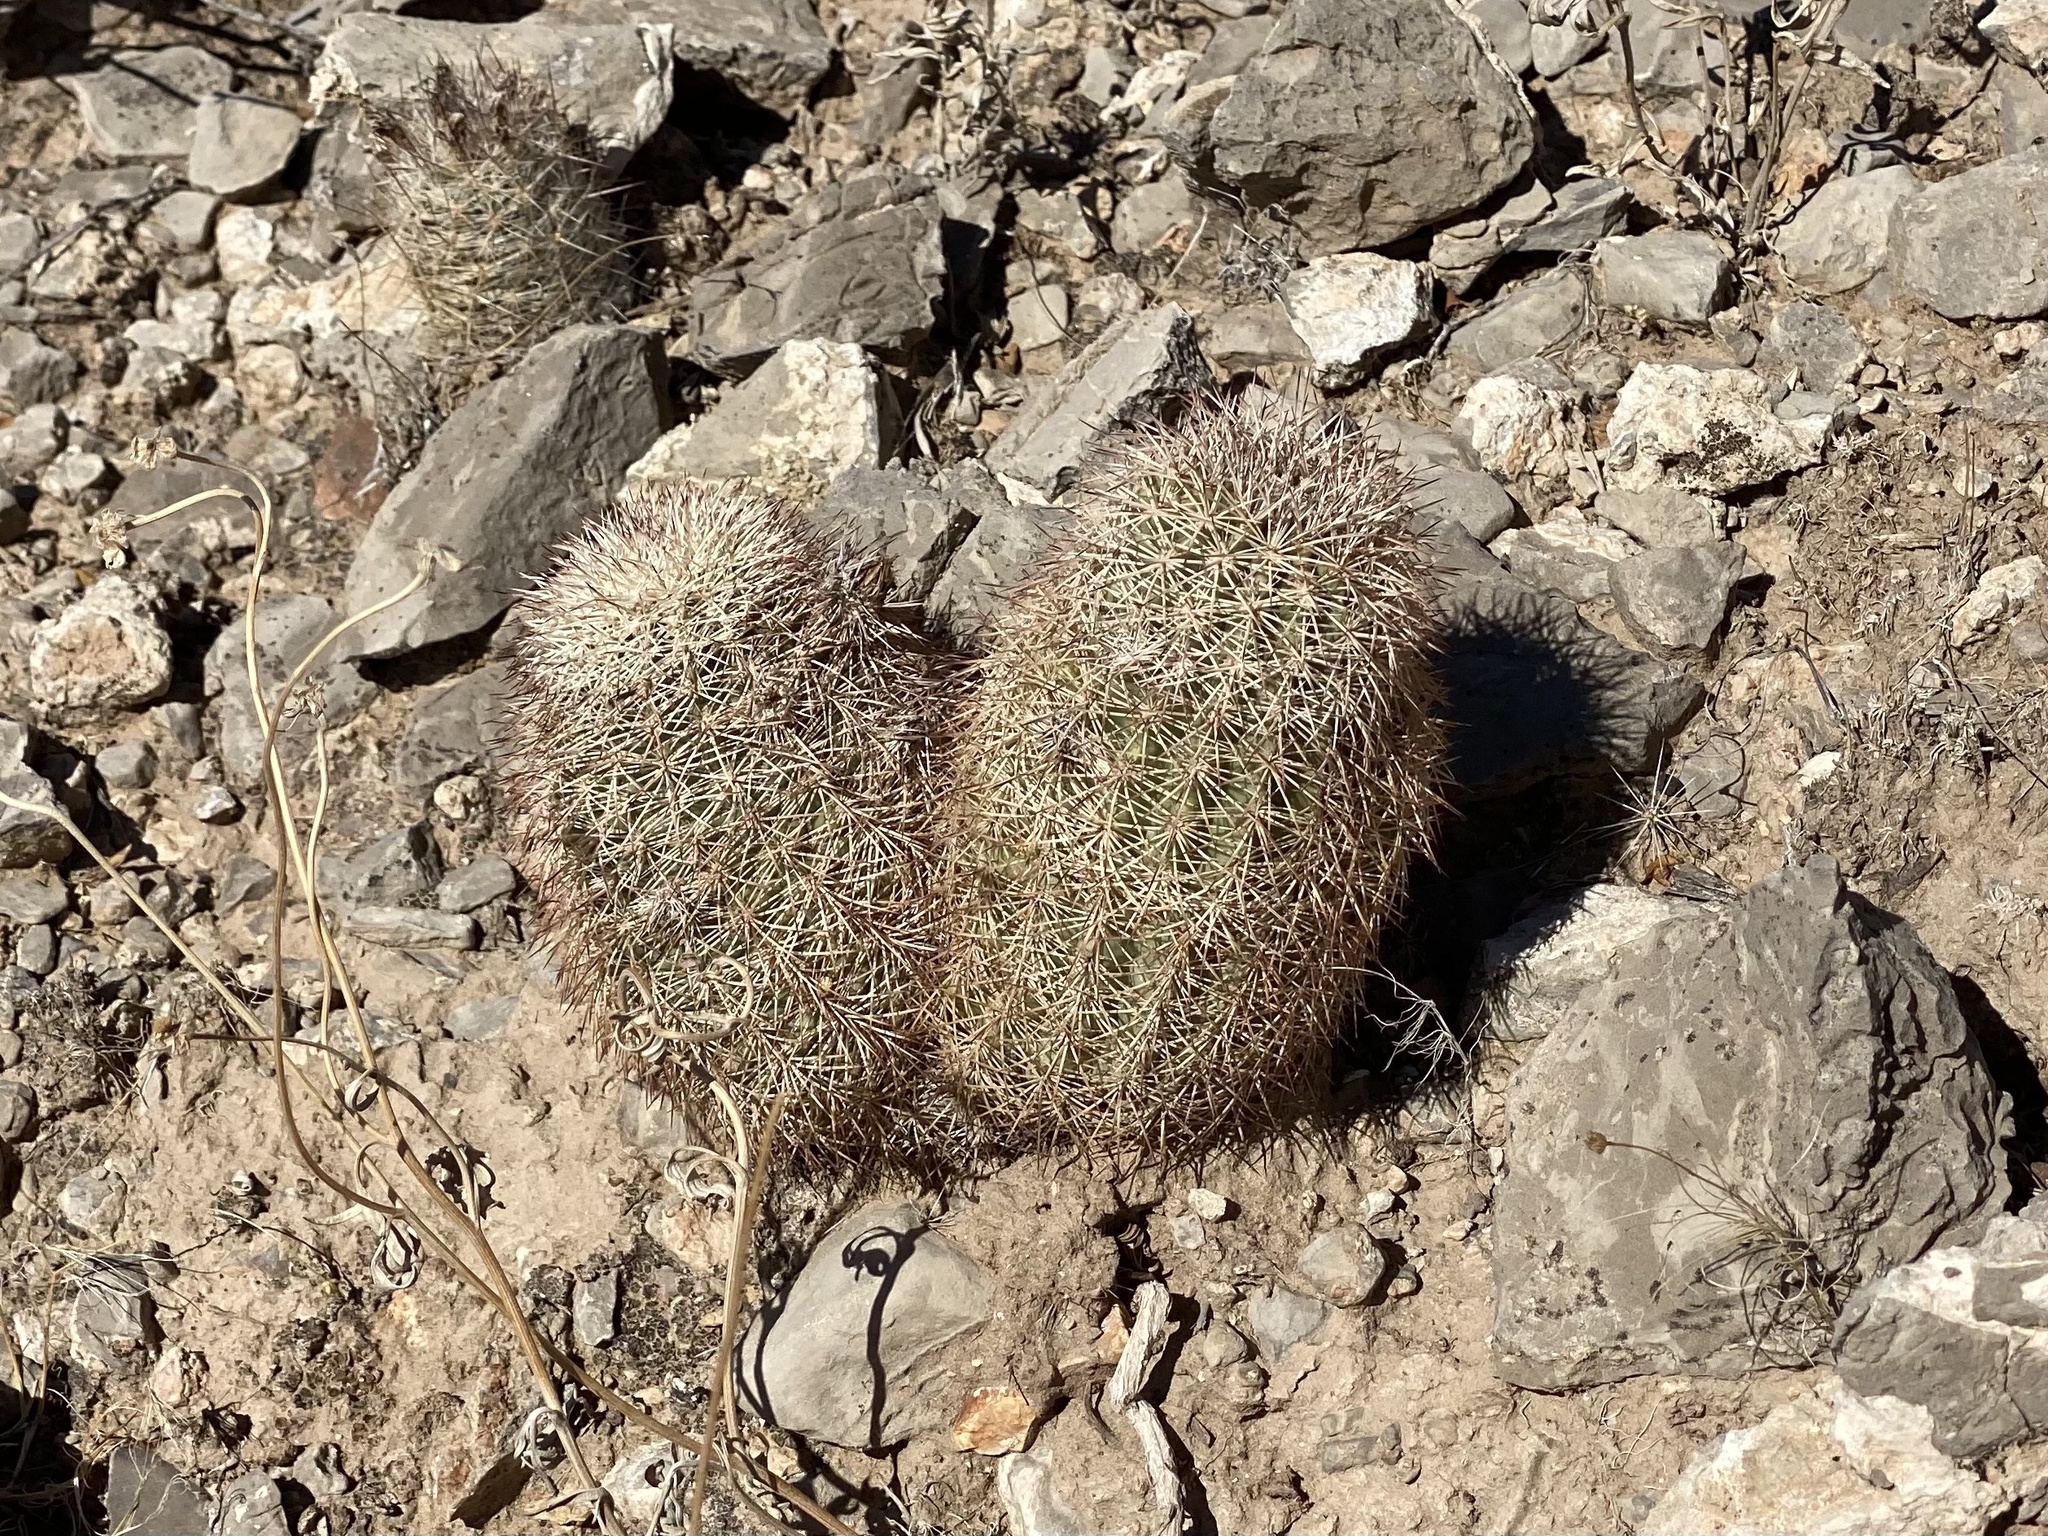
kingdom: Plantae
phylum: Tracheophyta
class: Magnoliopsida
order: Caryophyllales
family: Cactaceae
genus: Echinocereus
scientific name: Echinocereus dasyacanthus
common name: Spiny hedgehog cactus
